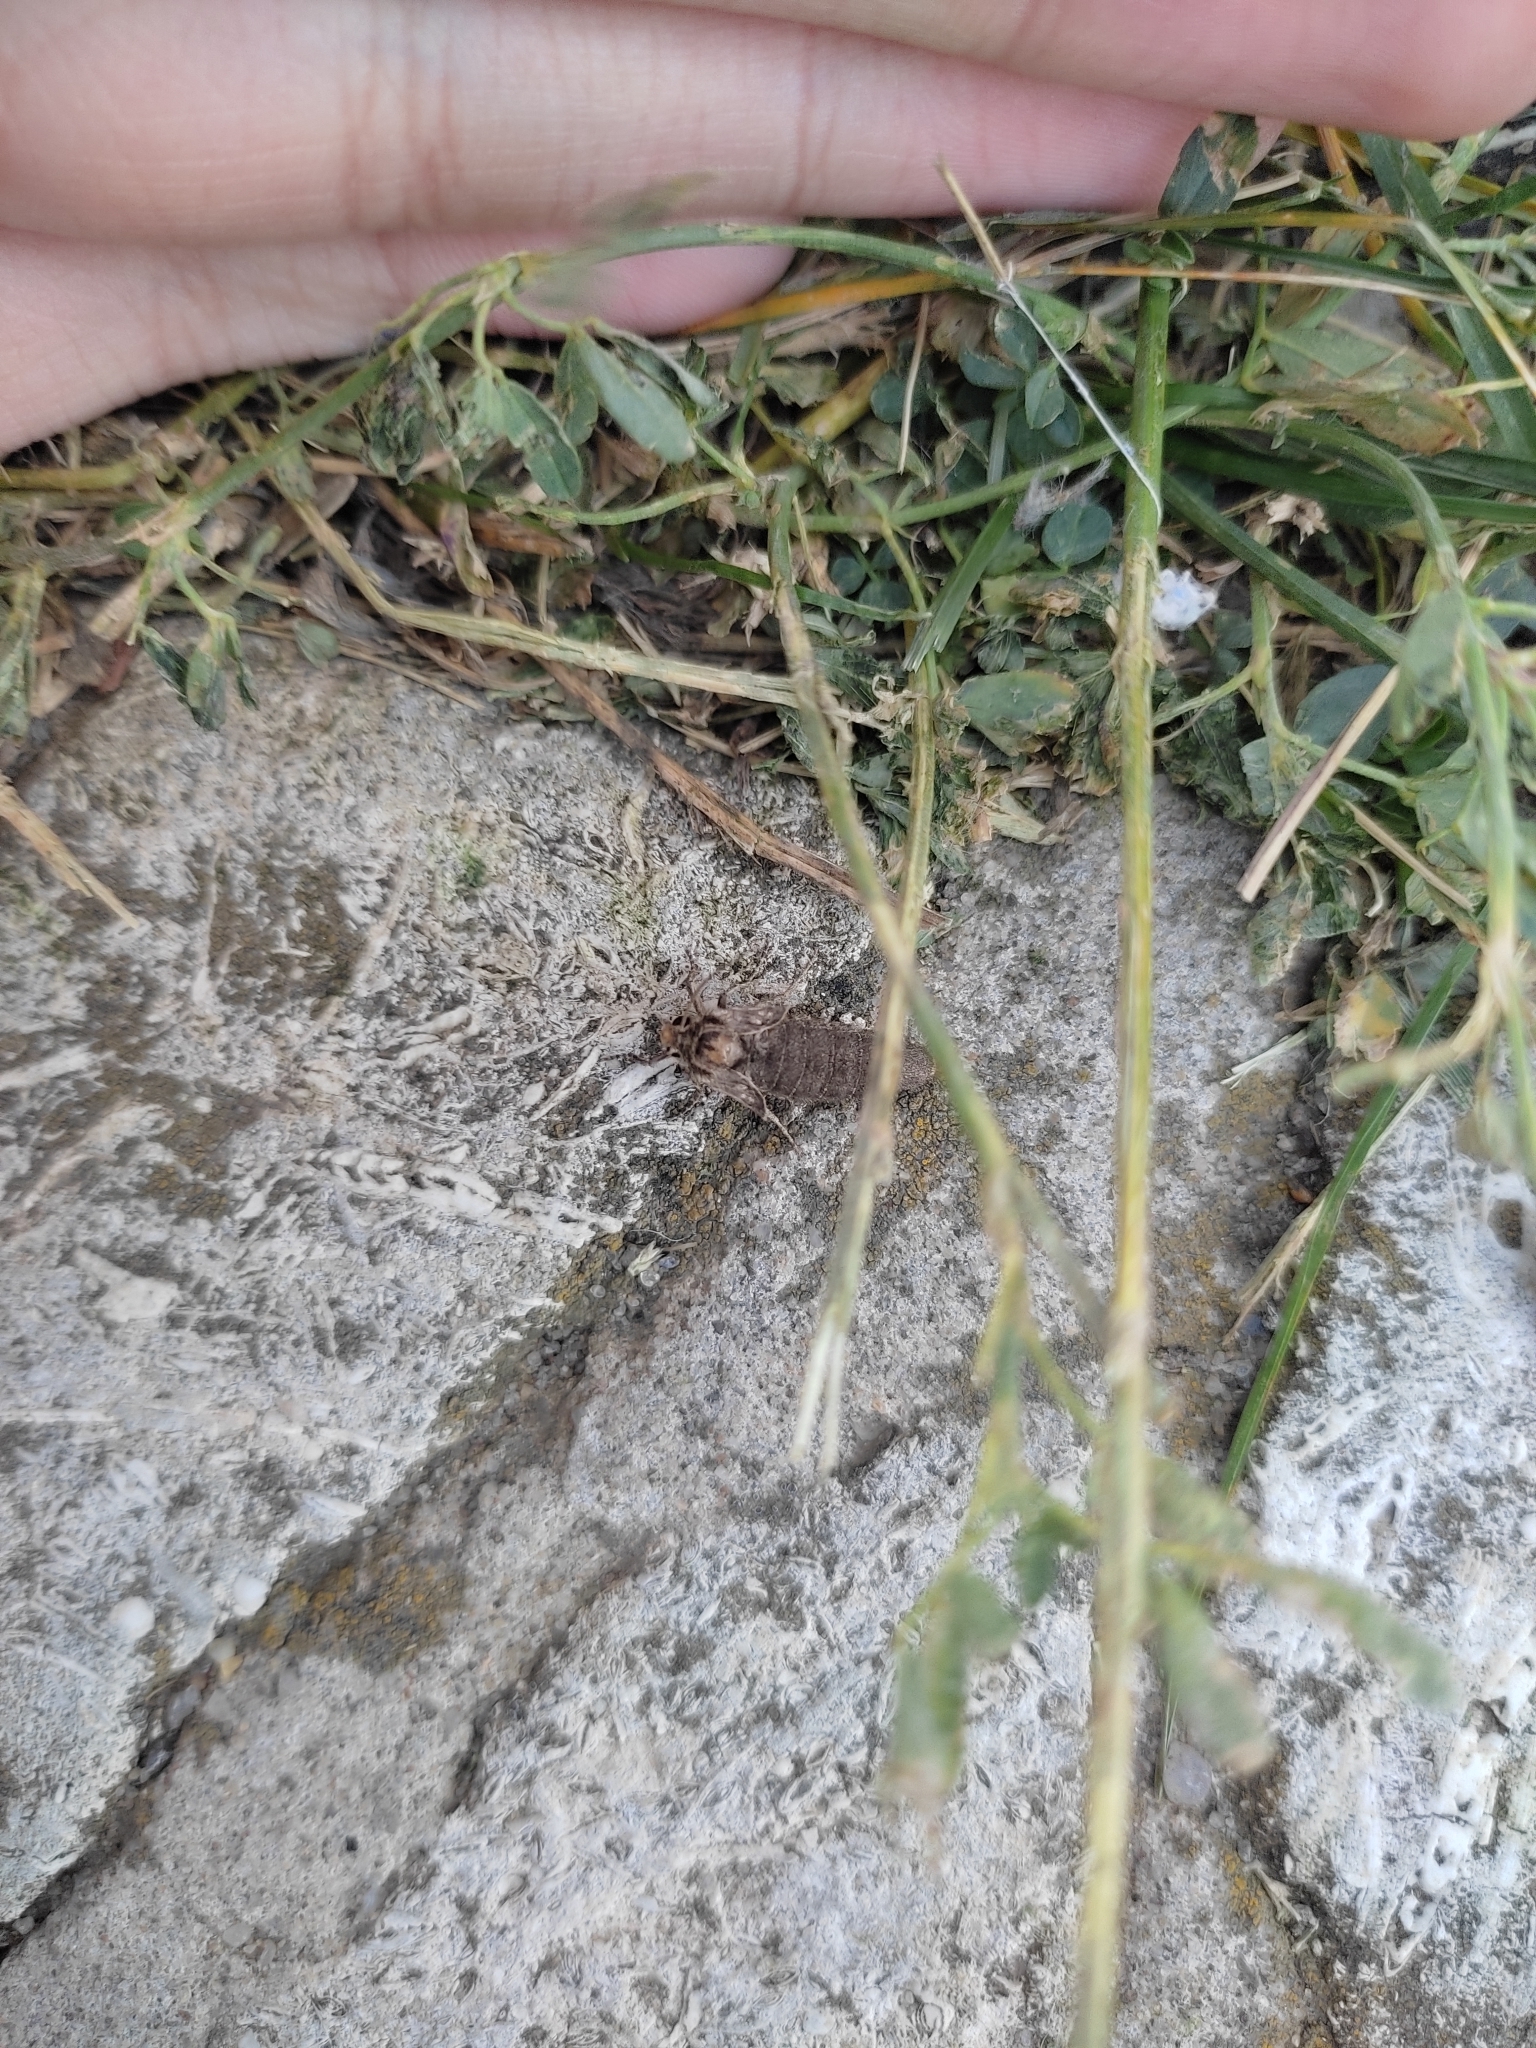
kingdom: Animalia
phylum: Arthropoda
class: Insecta
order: Lepidoptera
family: Noctuidae
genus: Ulochlaena
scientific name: Ulochlaena hirta
